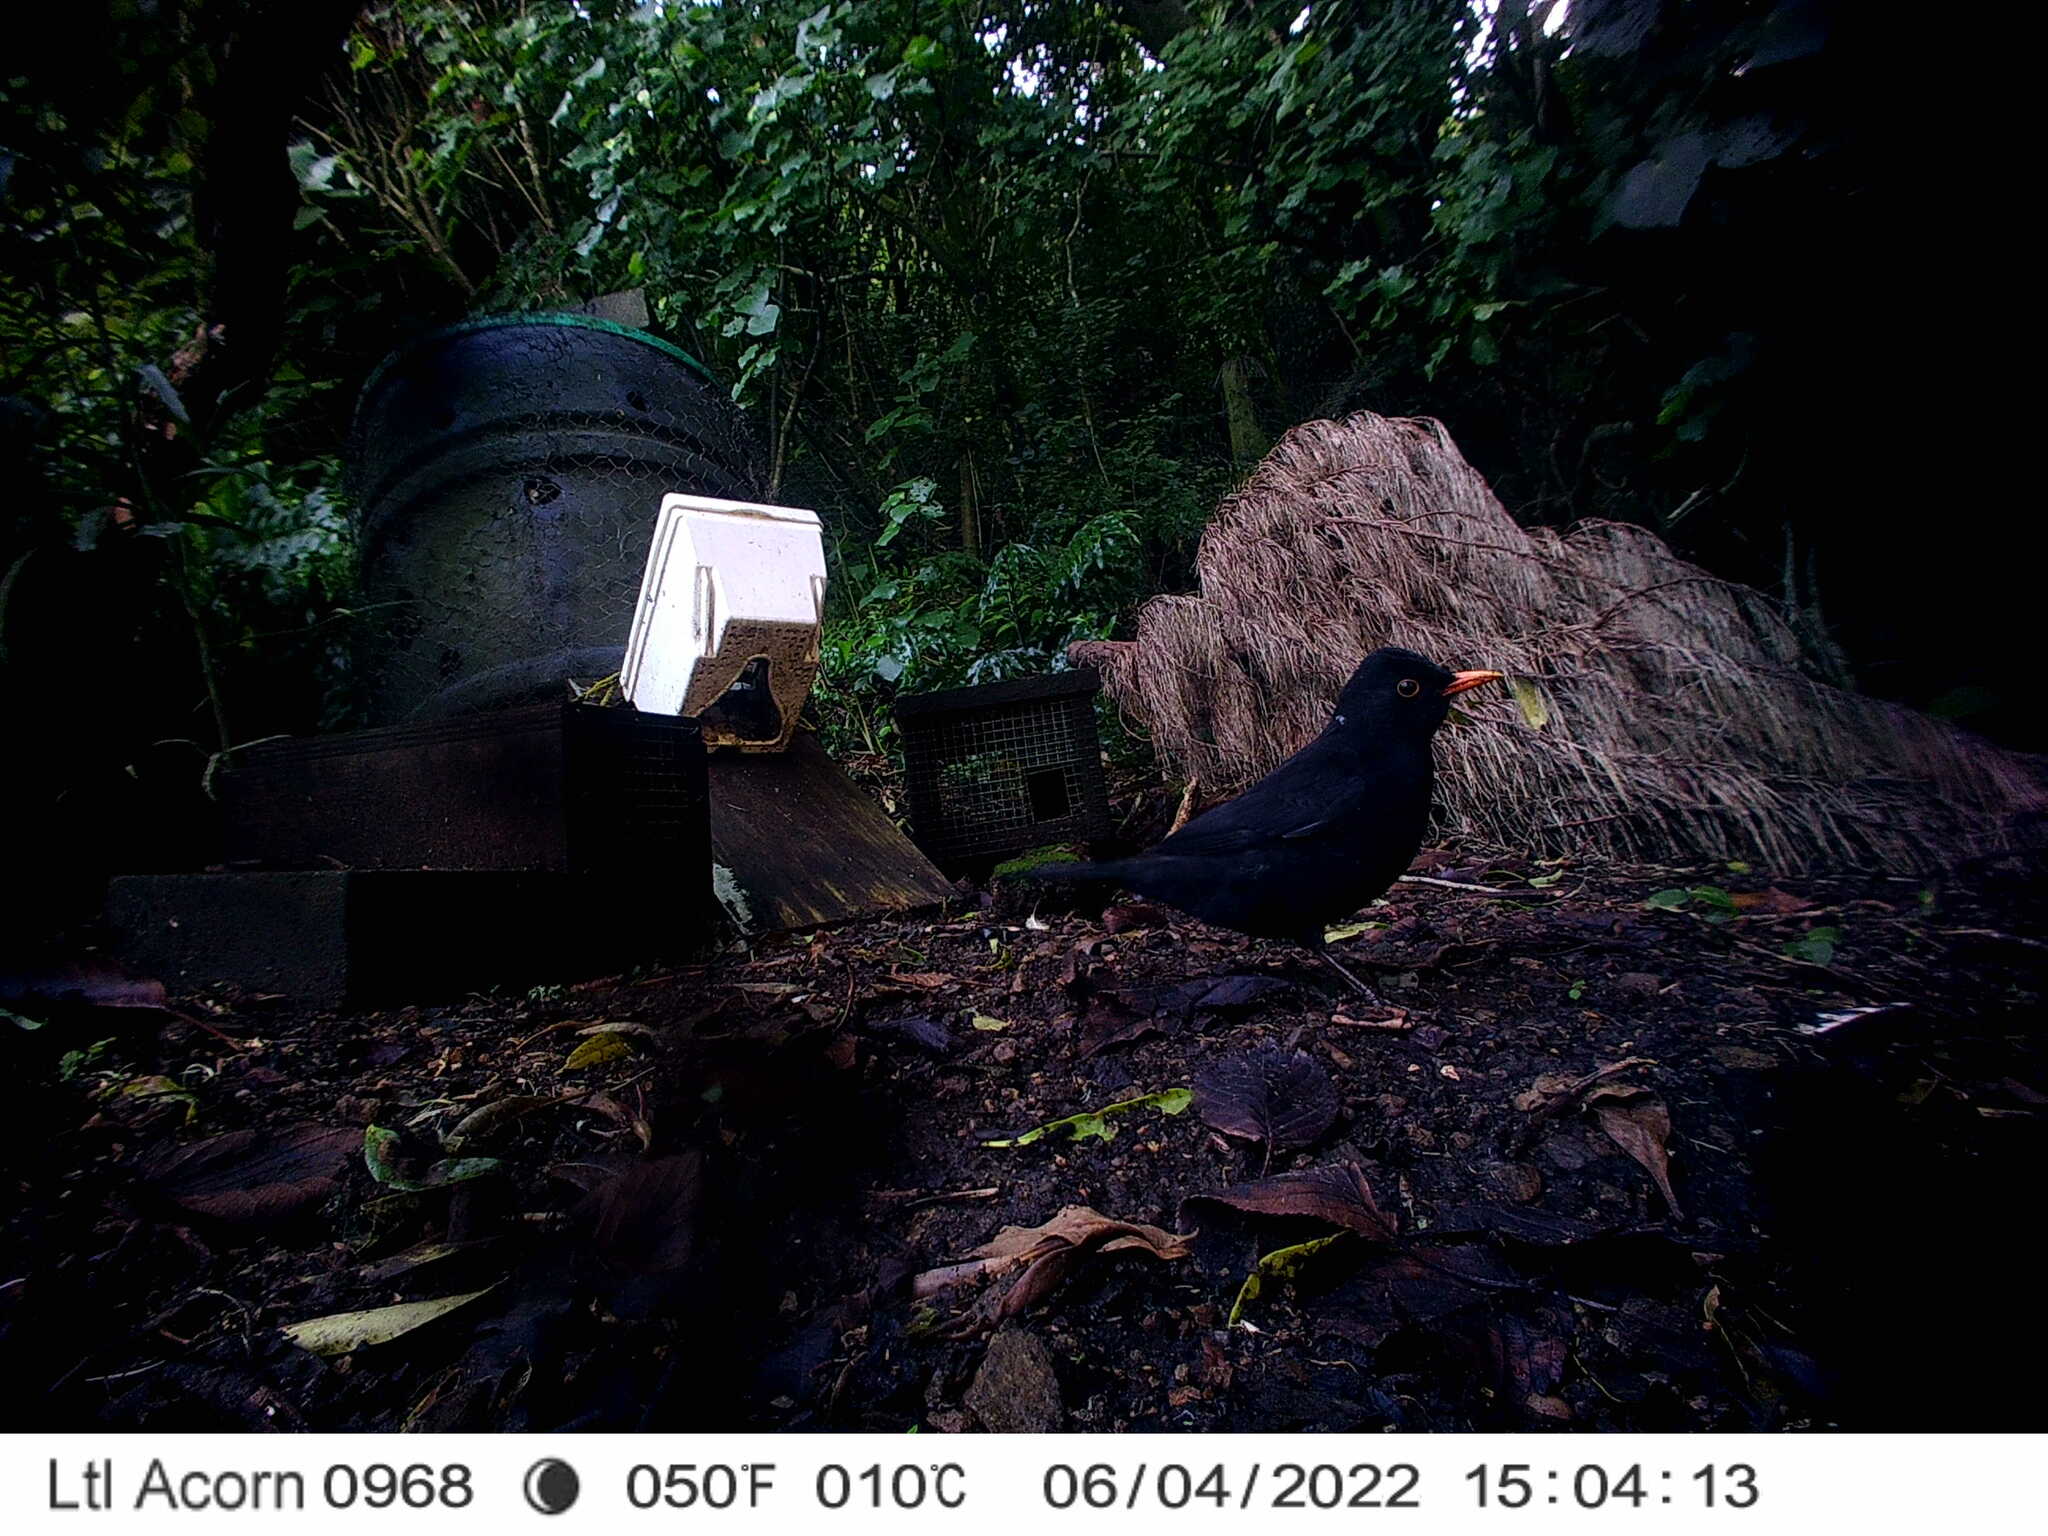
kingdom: Animalia
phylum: Chordata
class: Aves
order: Passeriformes
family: Turdidae
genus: Turdus
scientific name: Turdus merula
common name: Common blackbird
